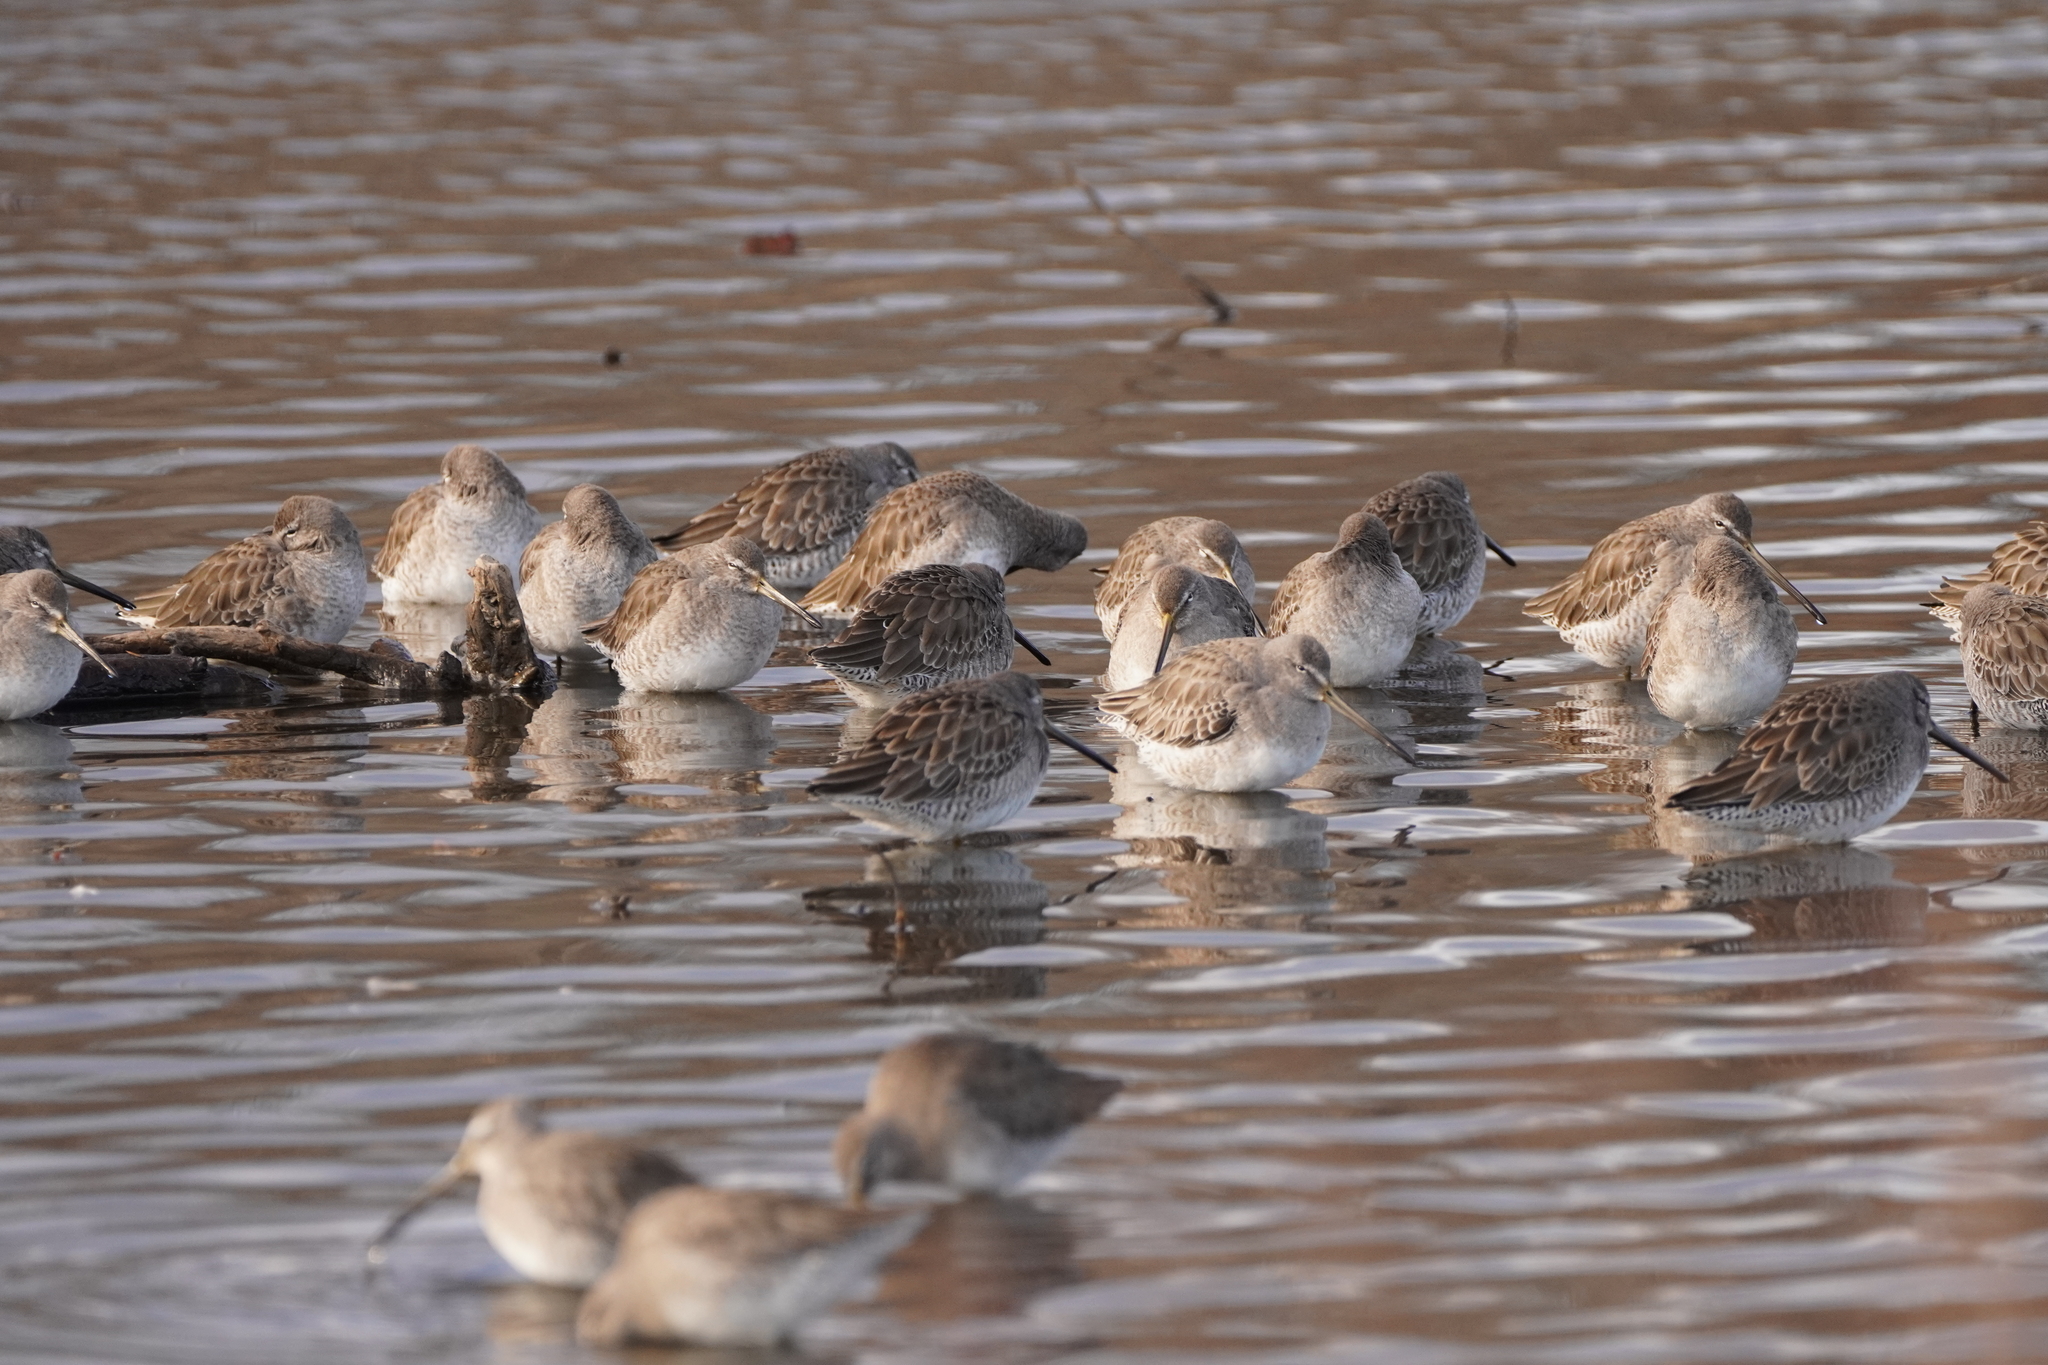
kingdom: Animalia
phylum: Chordata
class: Aves
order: Charadriiformes
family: Scolopacidae
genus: Limnodromus
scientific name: Limnodromus scolopaceus
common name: Long-billed dowitcher
